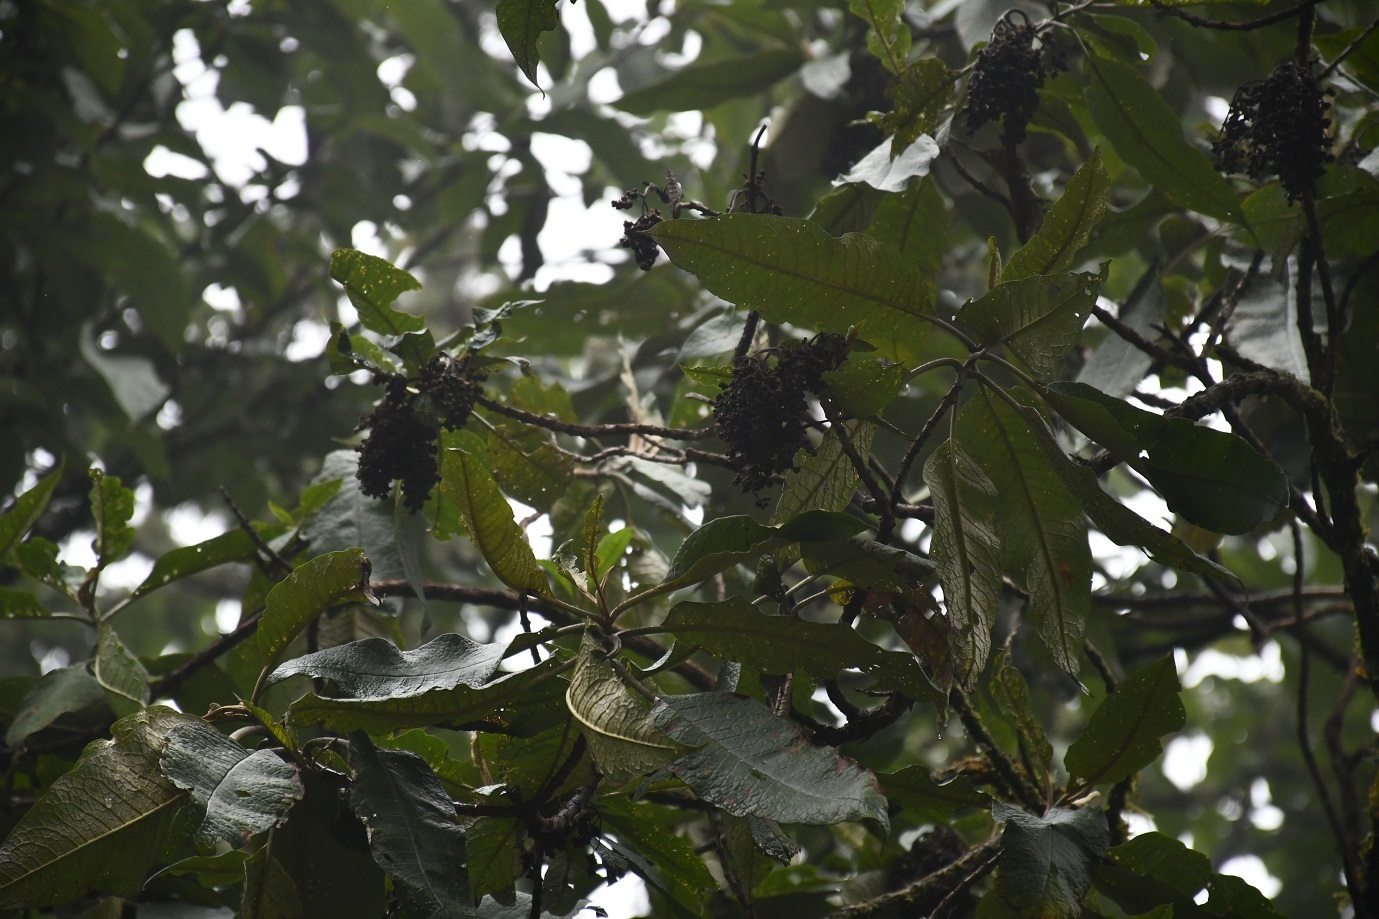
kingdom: Plantae
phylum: Tracheophyta
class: Magnoliopsida
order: Lamiales
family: Scrophulariaceae
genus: Buddleja
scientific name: Buddleja skutchii
